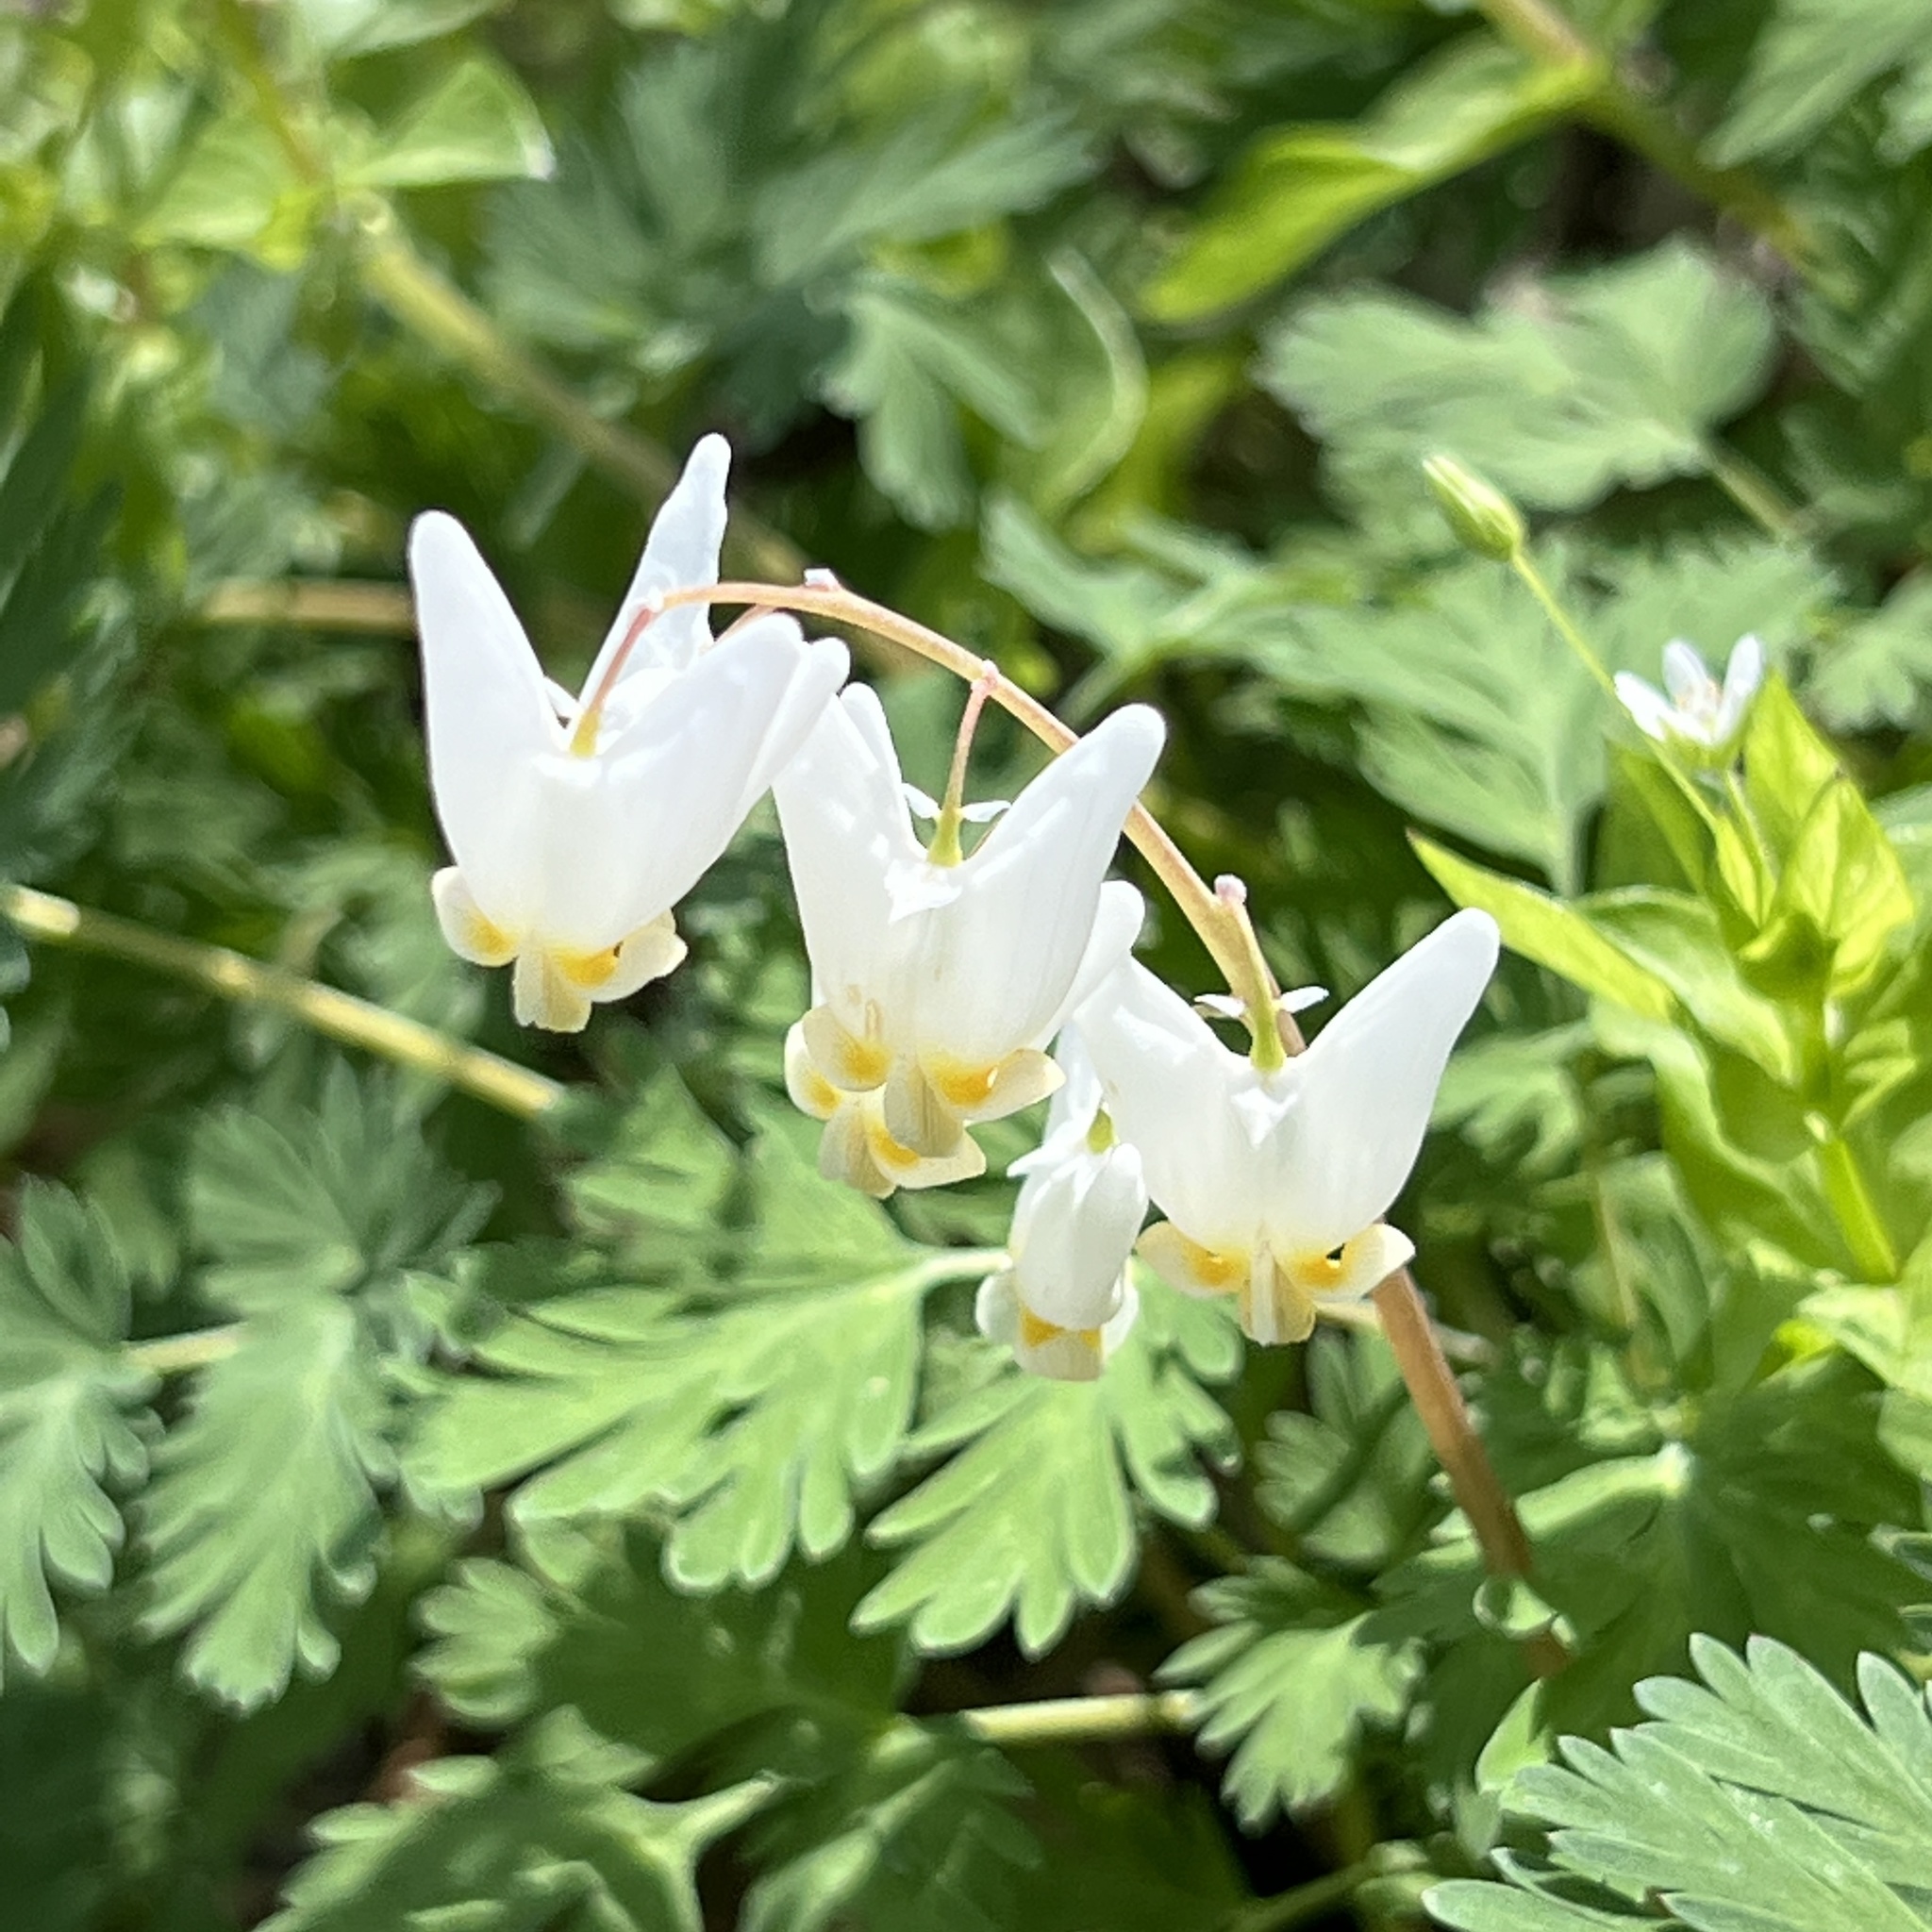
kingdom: Plantae
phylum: Tracheophyta
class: Magnoliopsida
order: Ranunculales
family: Papaveraceae
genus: Dicentra
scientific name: Dicentra cucullaria
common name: Dutchman's breeches
